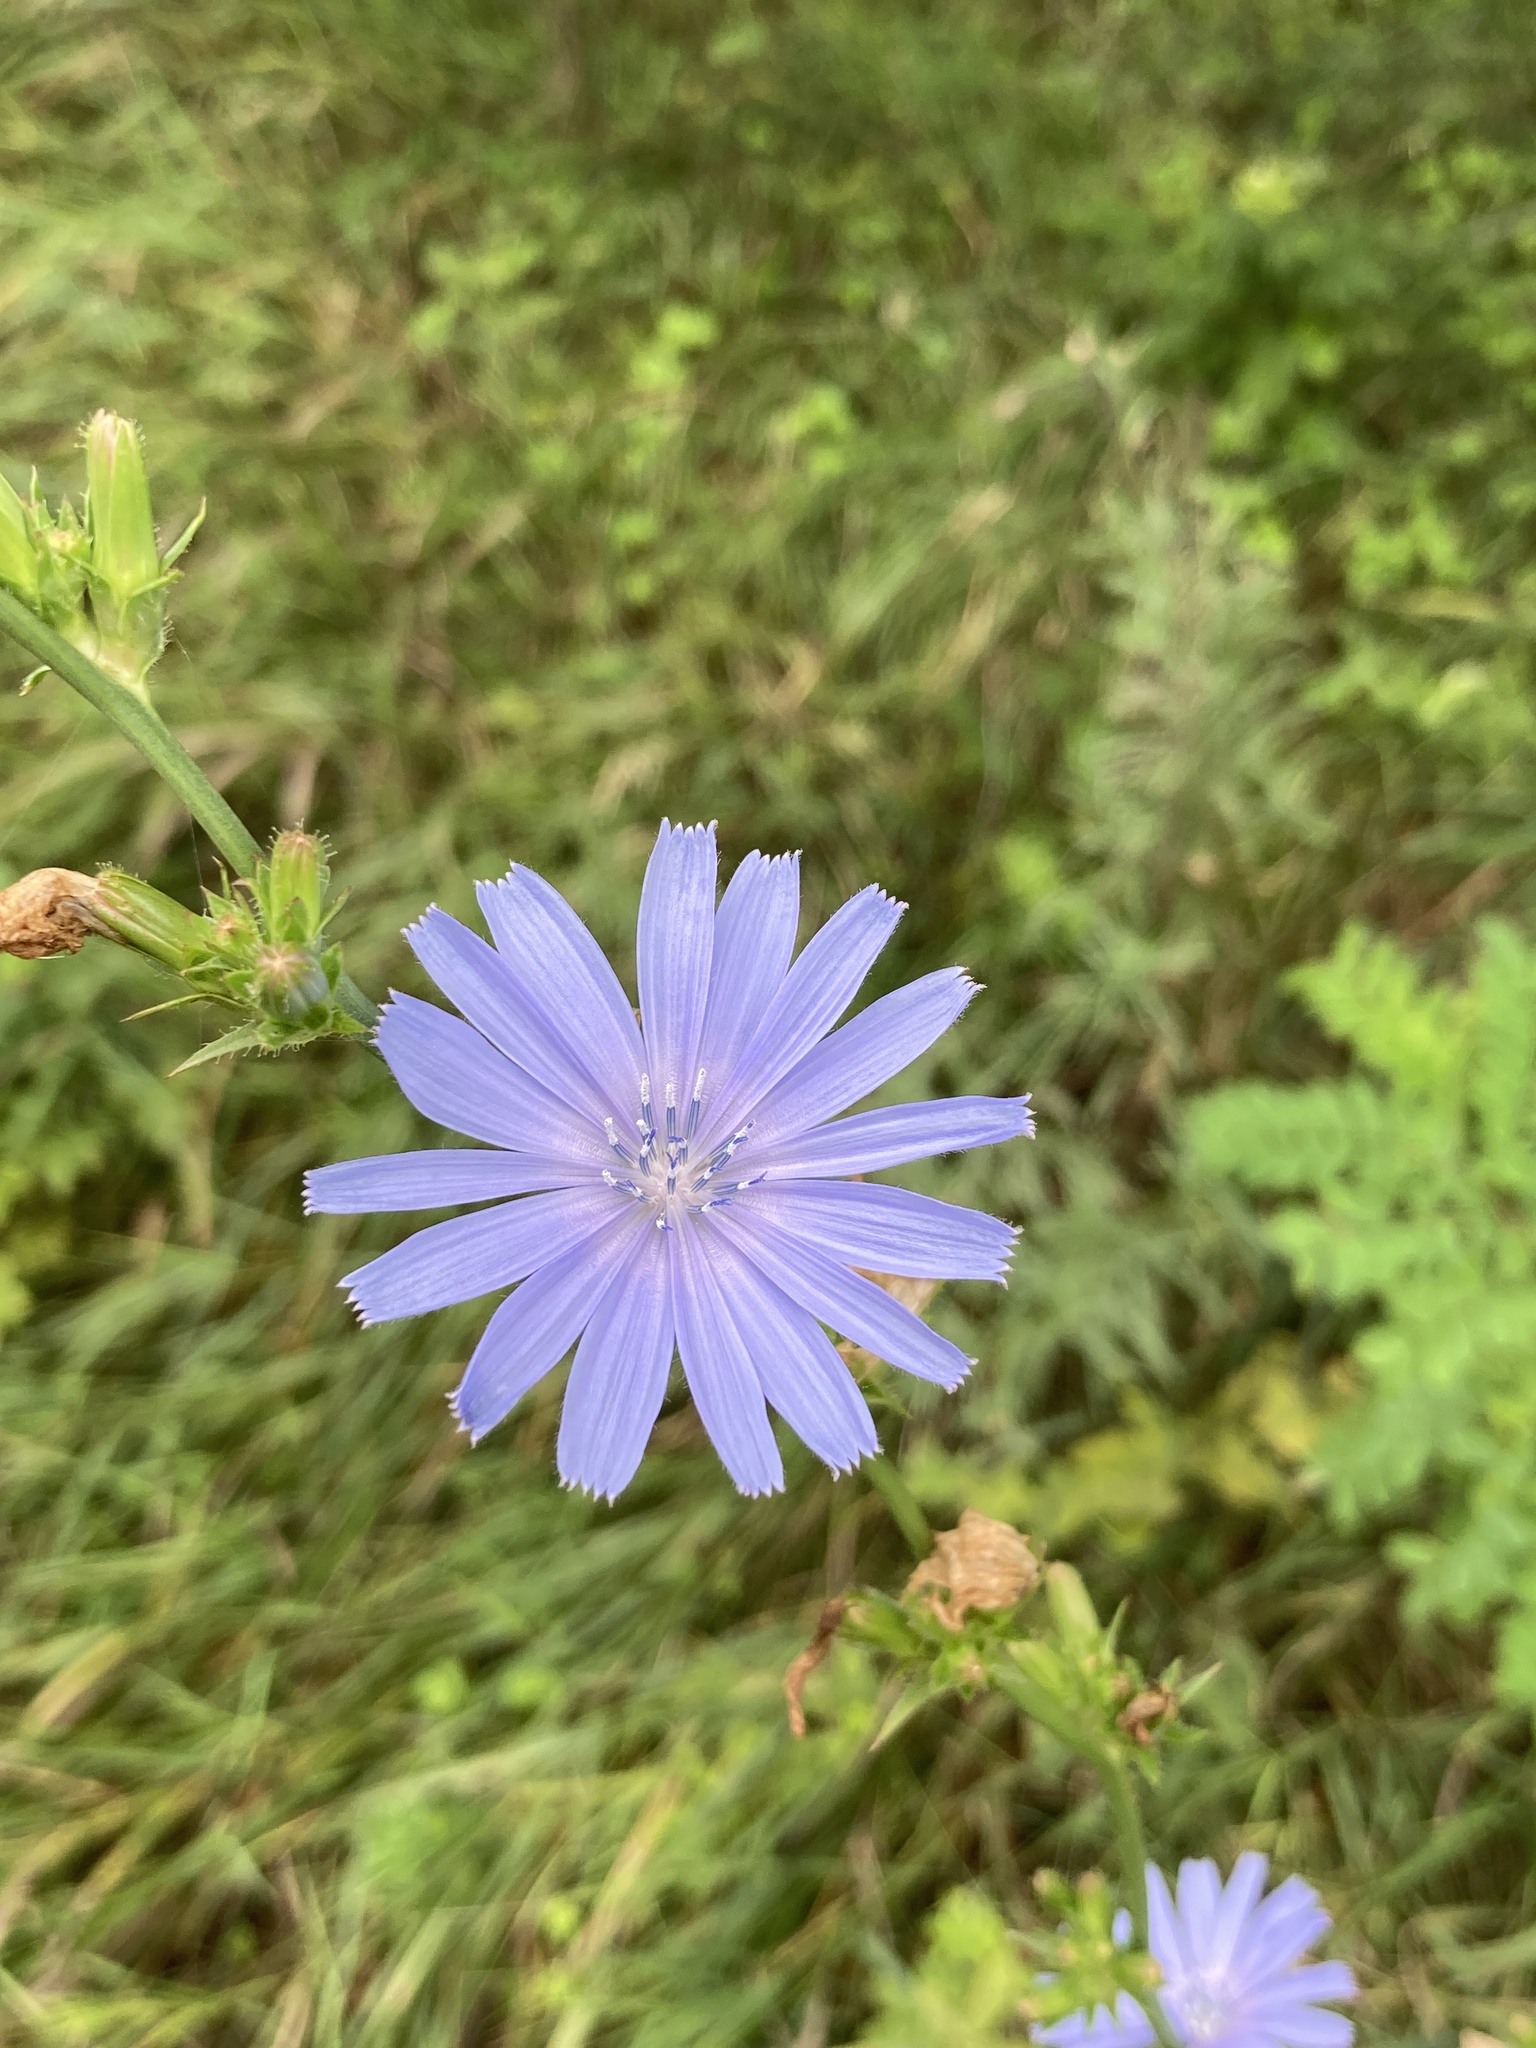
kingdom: Plantae
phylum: Tracheophyta
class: Magnoliopsida
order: Asterales
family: Asteraceae
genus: Cichorium
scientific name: Cichorium intybus
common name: Chicory
